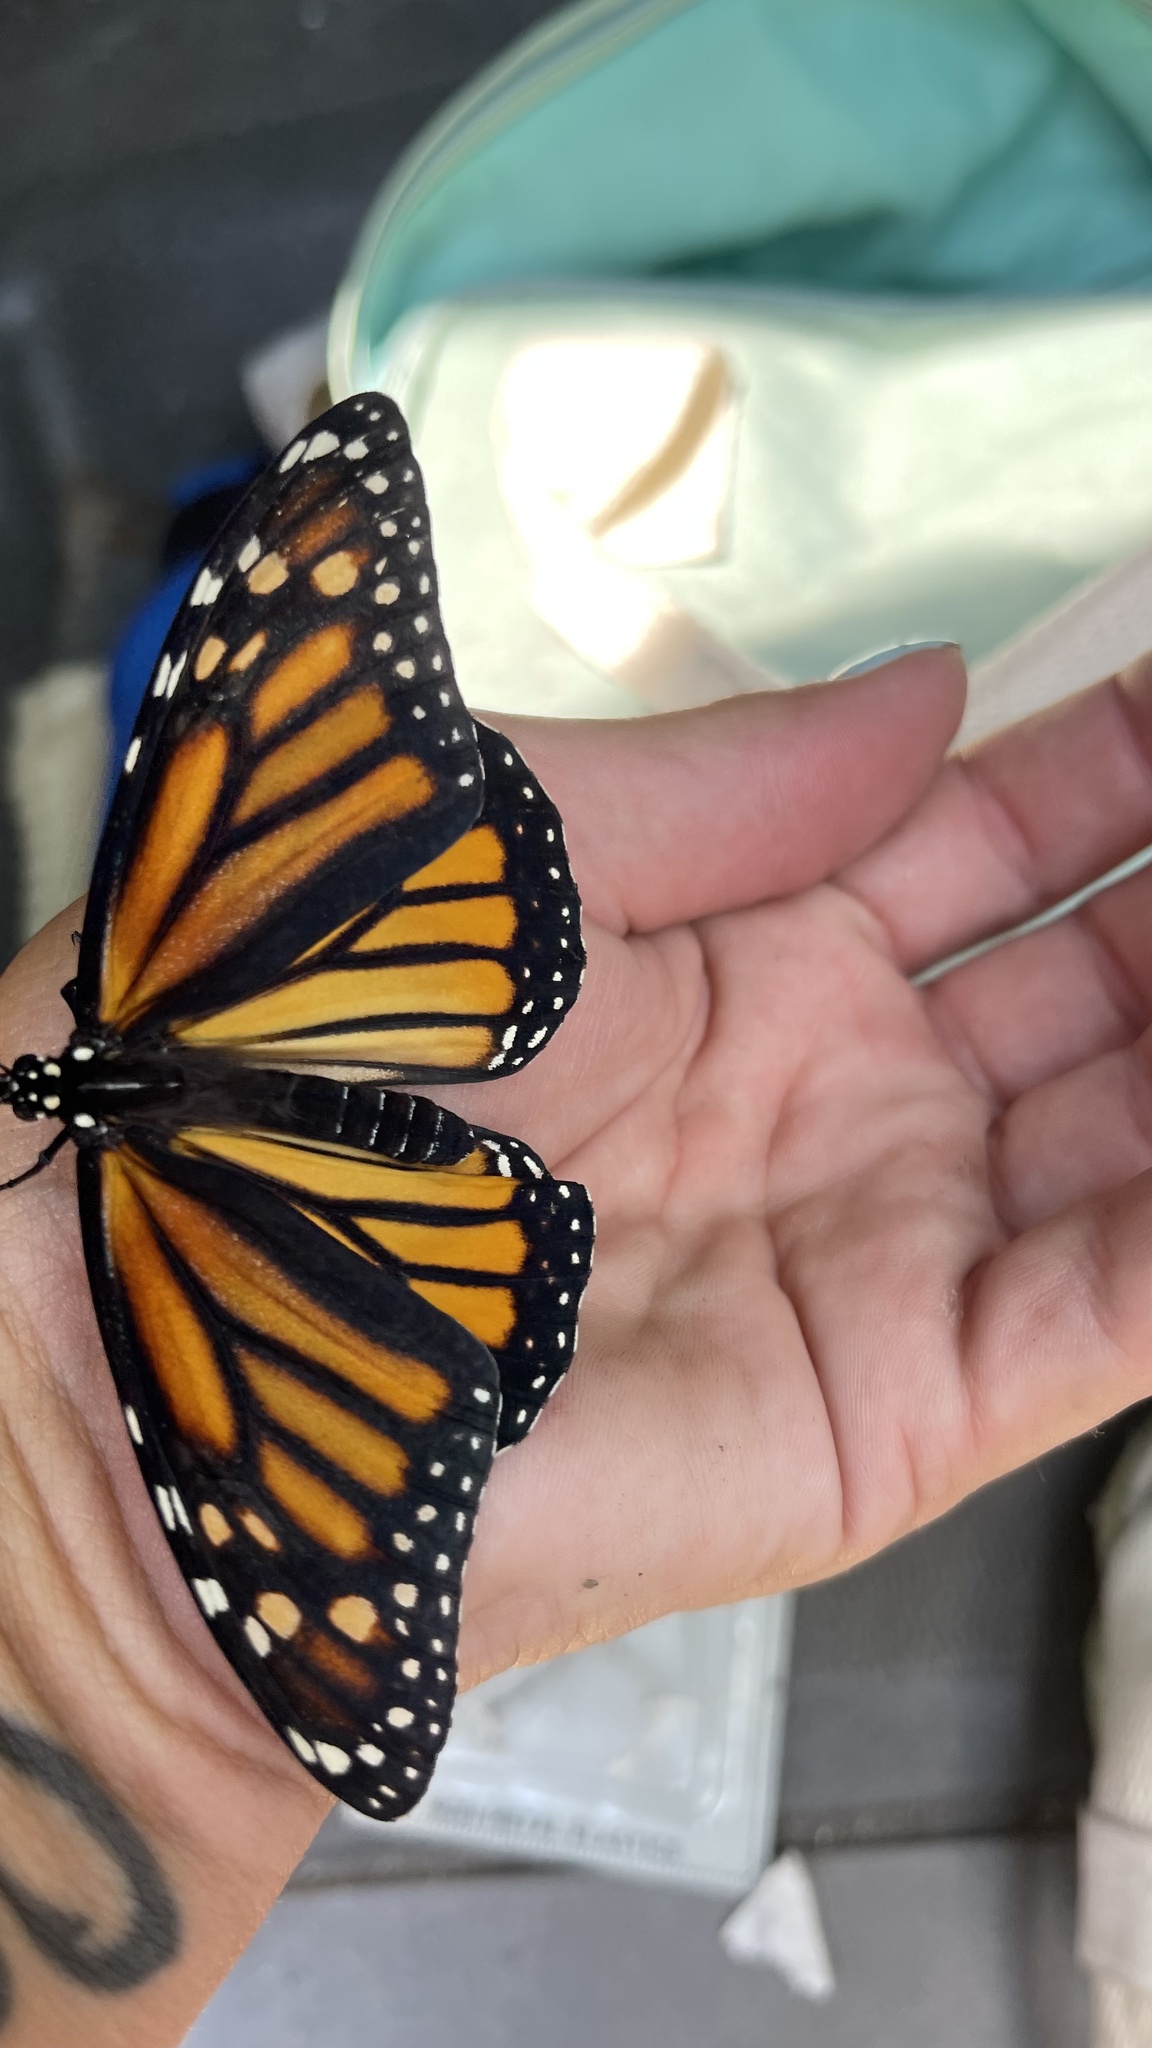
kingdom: Animalia
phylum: Arthropoda
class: Insecta
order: Lepidoptera
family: Nymphalidae
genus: Danaus
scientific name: Danaus plexippus
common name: Monarch
